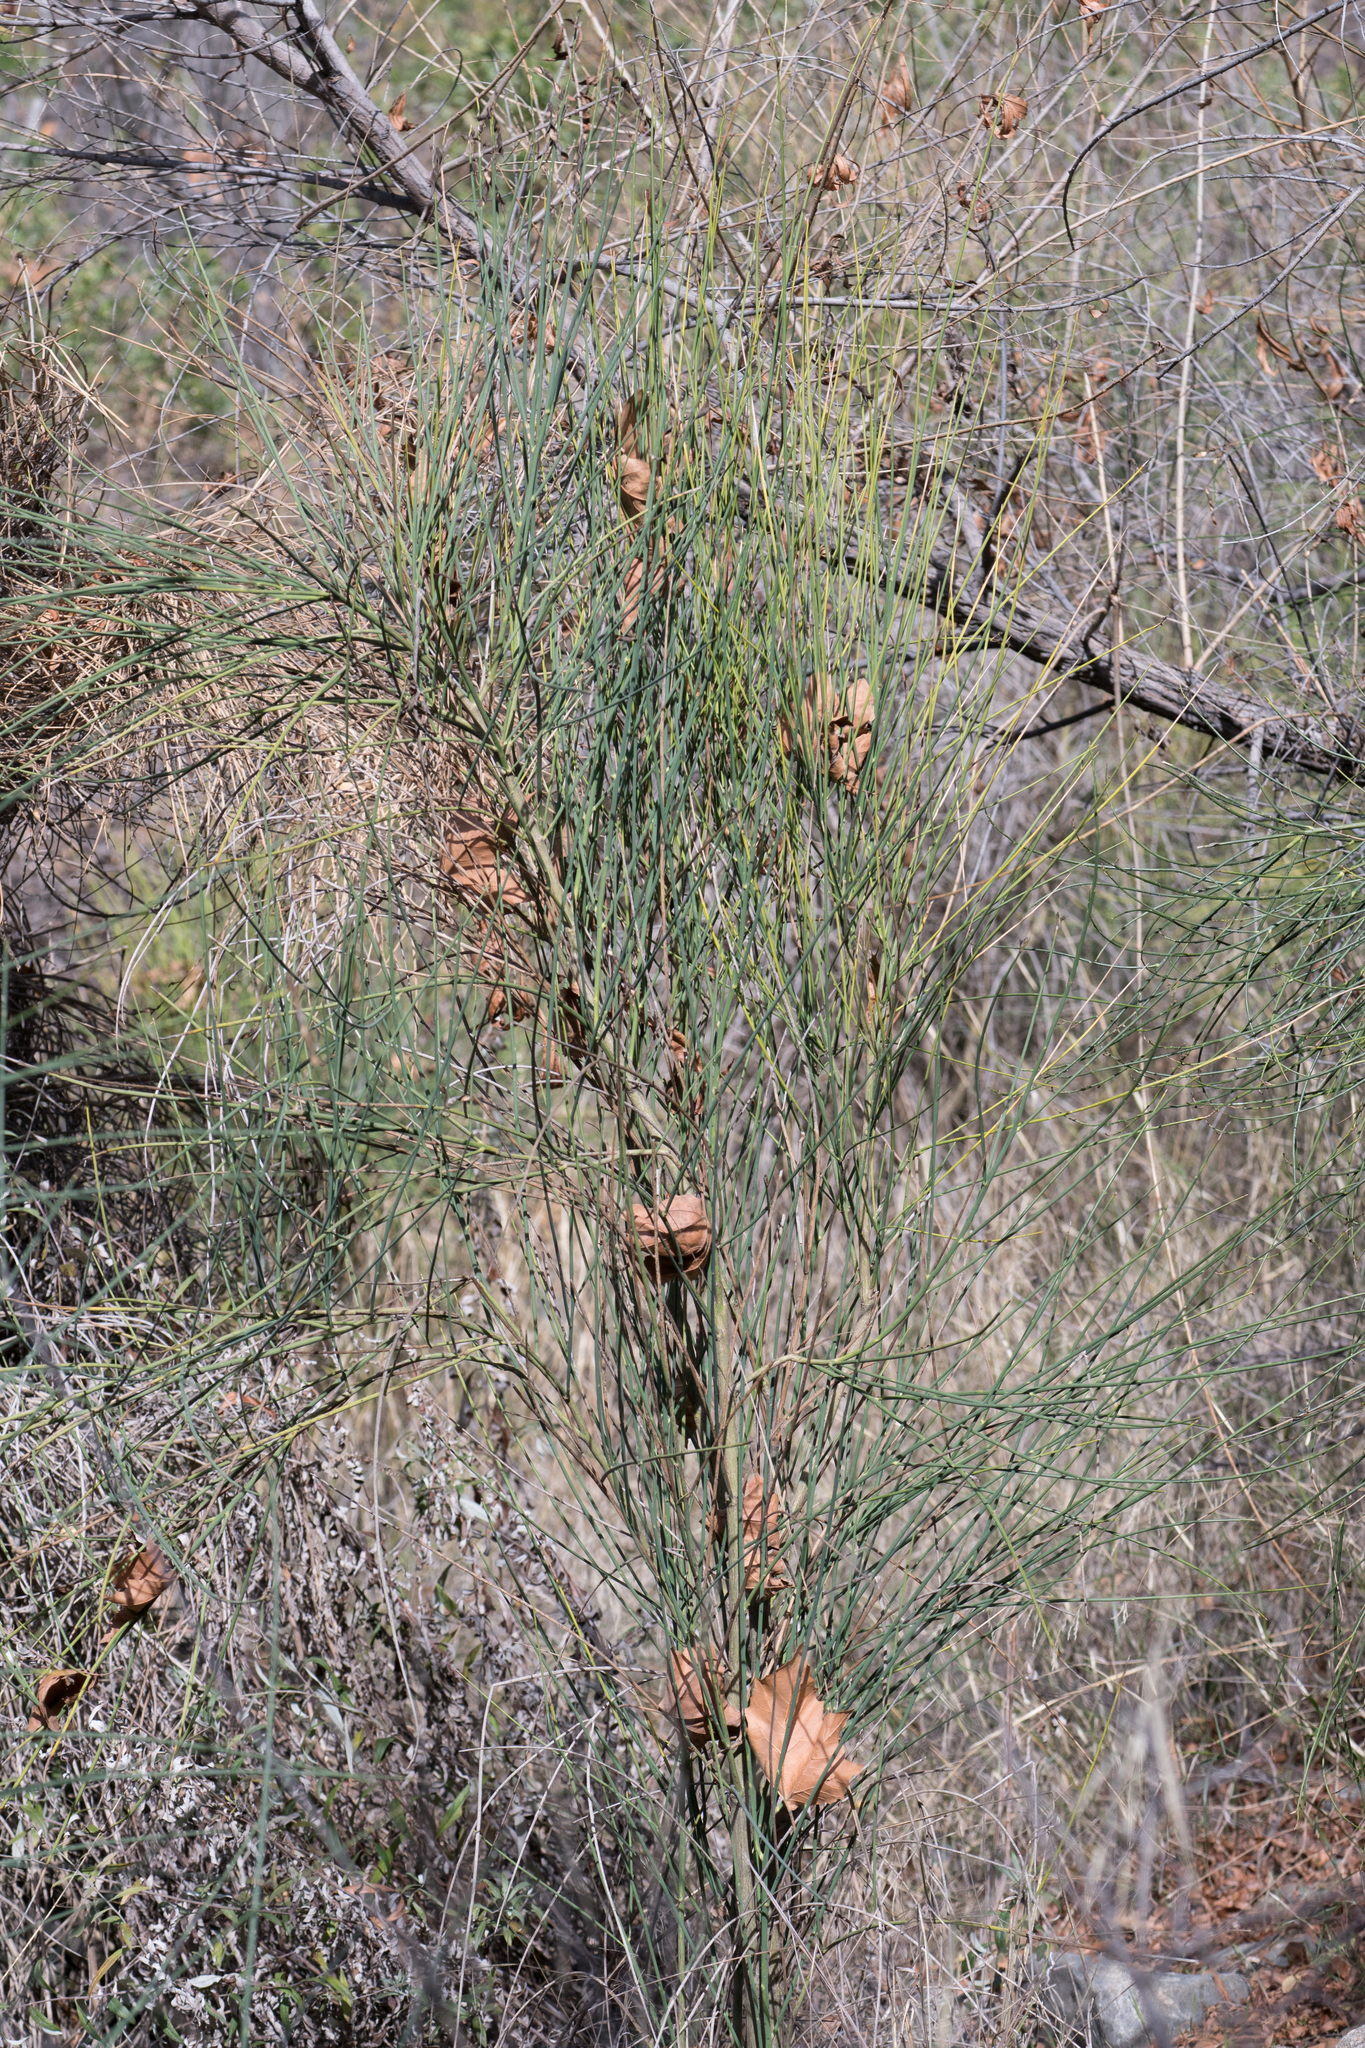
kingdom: Plantae
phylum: Tracheophyta
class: Magnoliopsida
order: Fabales
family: Fabaceae
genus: Spartium
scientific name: Spartium junceum
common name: Spanish broom
